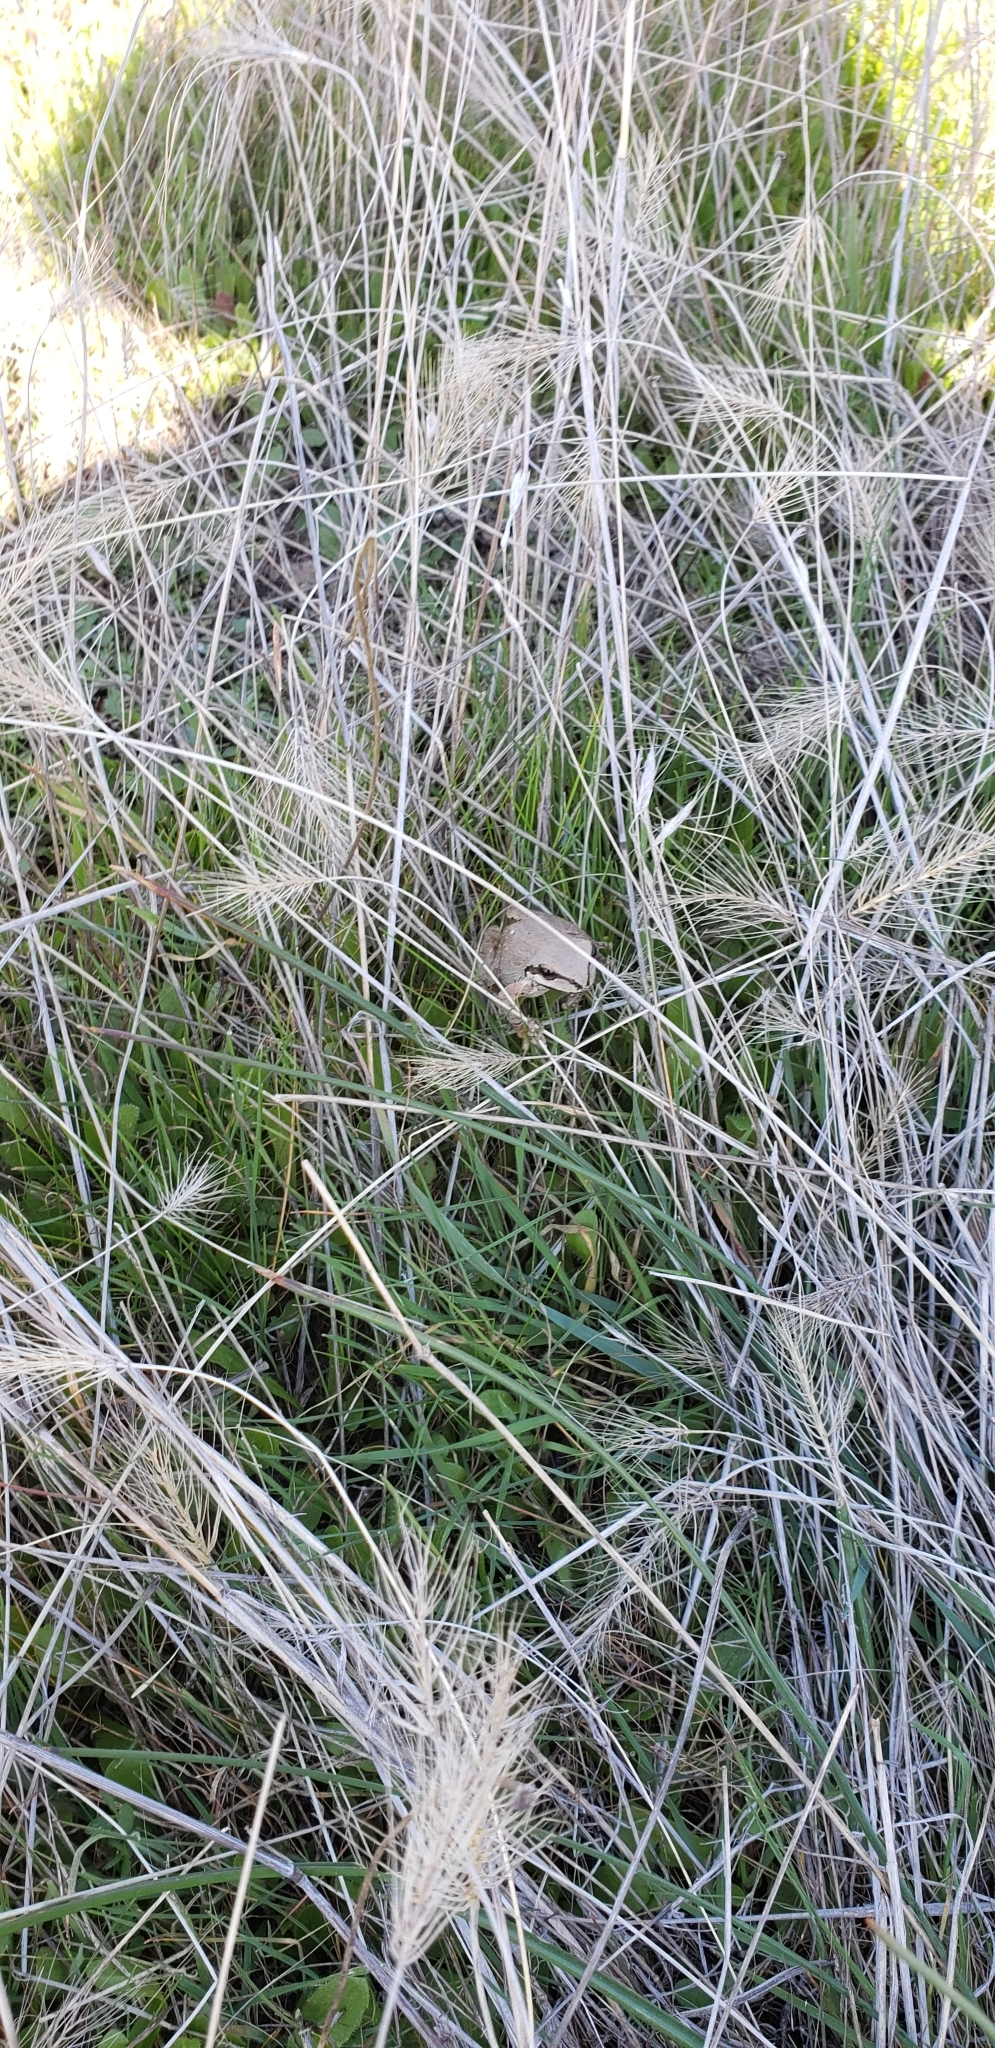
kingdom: Animalia
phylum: Chordata
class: Amphibia
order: Anura
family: Hylidae
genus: Pseudacris
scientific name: Pseudacris regilla
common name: Pacific chorus frog
